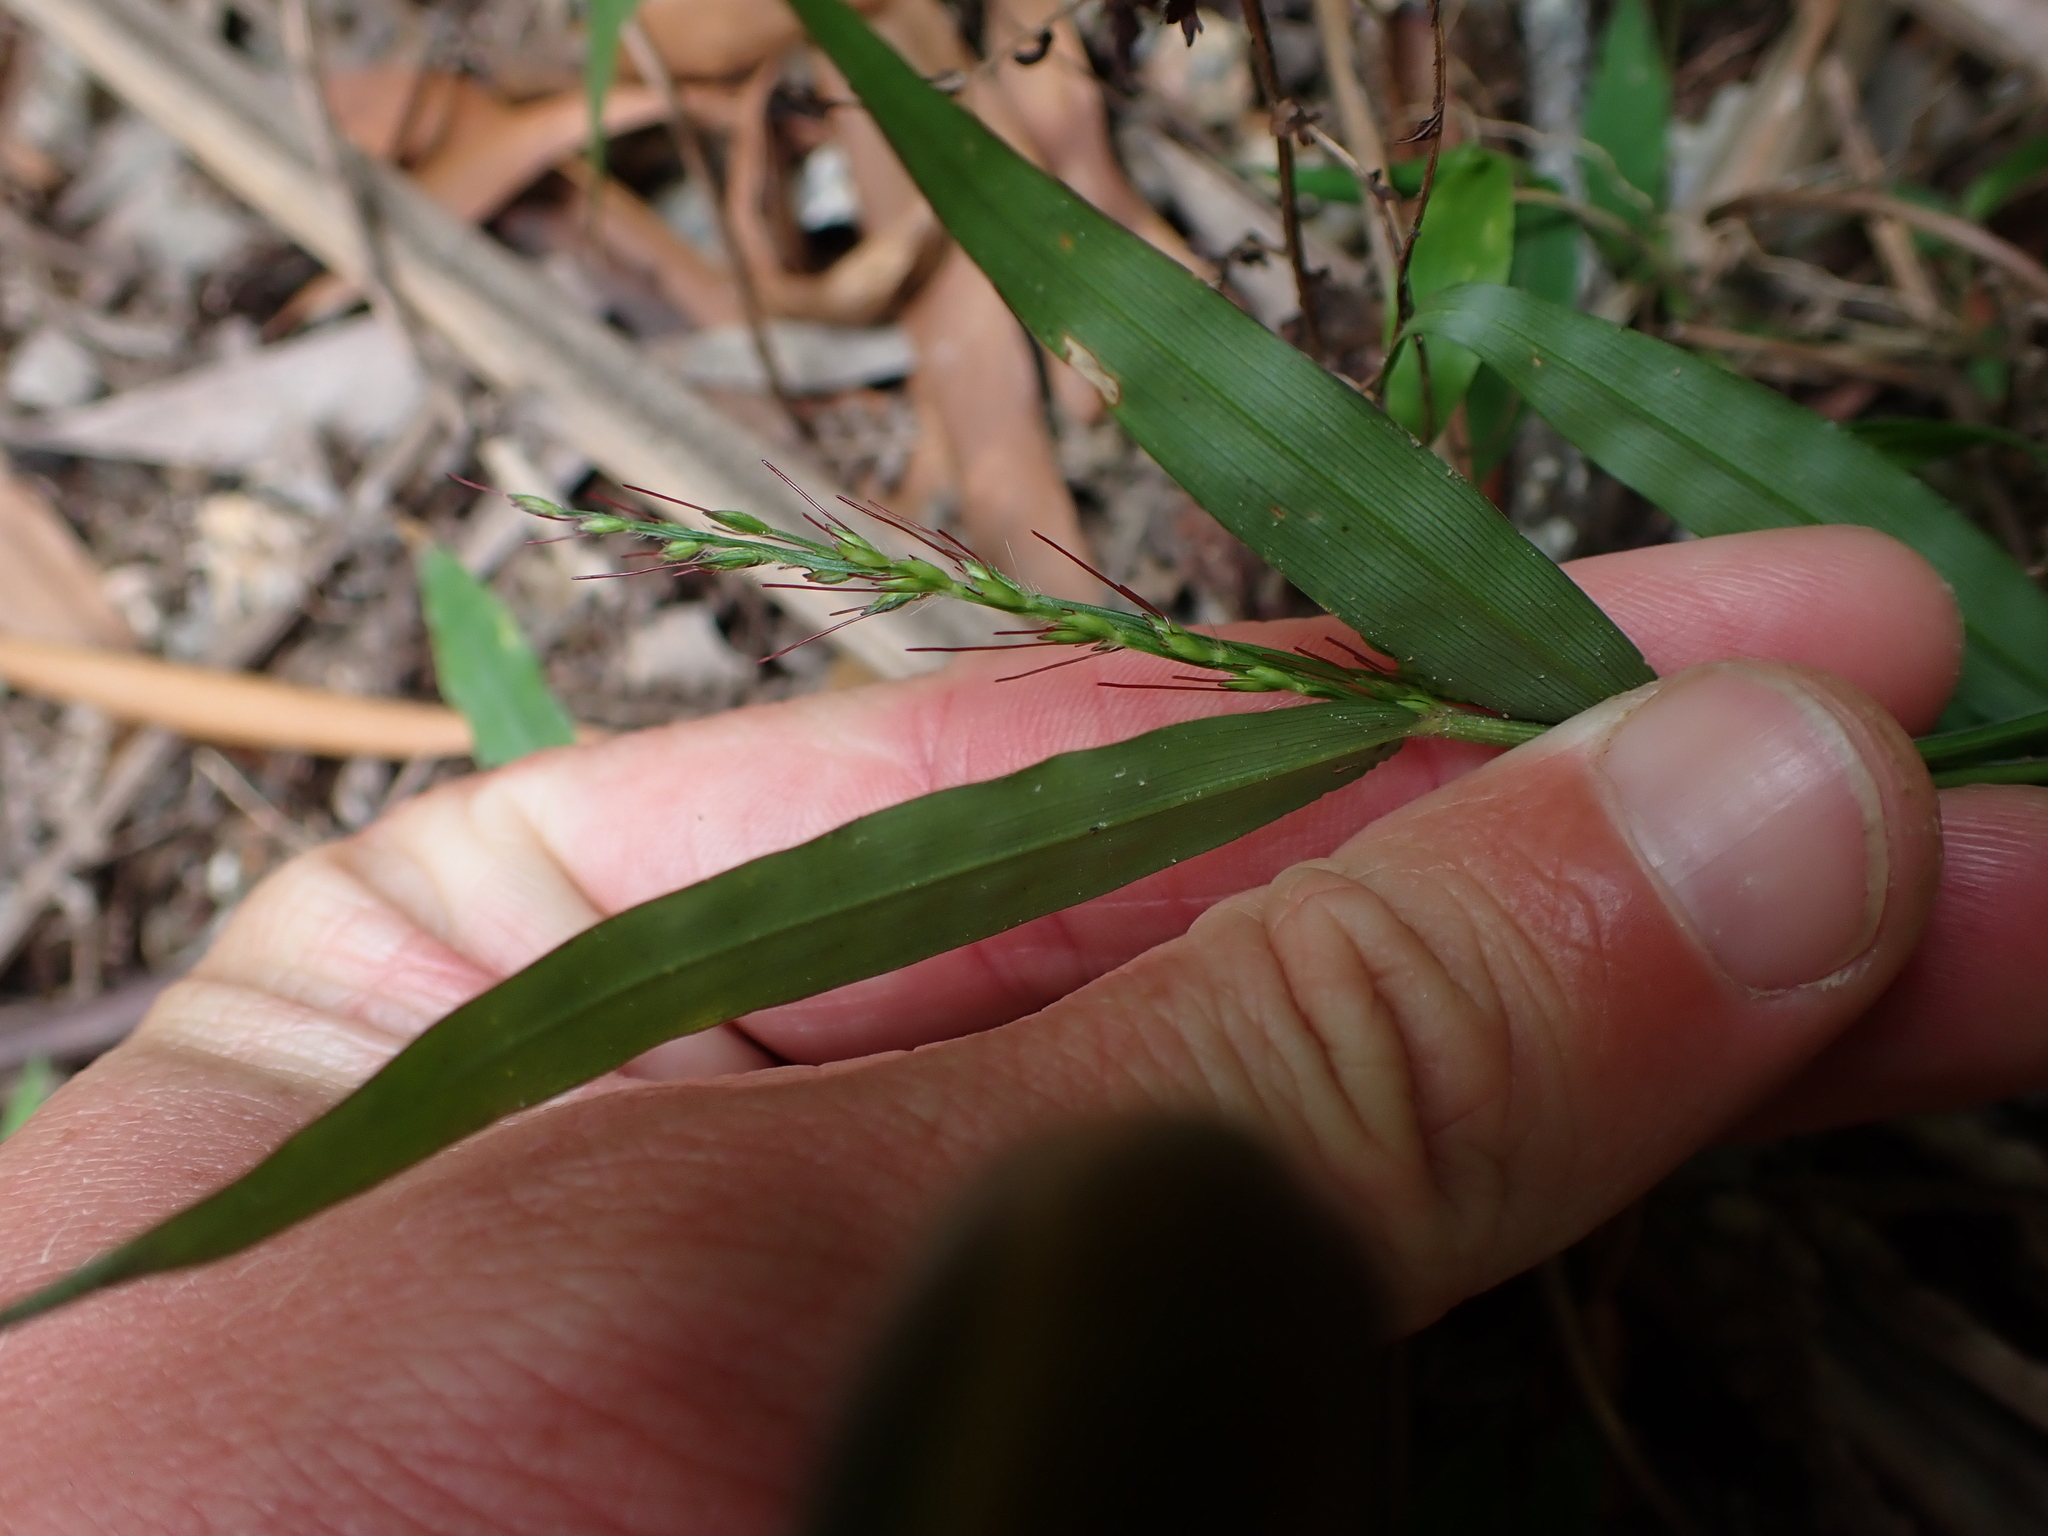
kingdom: Plantae
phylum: Tracheophyta
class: Liliopsida
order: Poales
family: Poaceae
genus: Oplismenus
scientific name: Oplismenus hirtellus
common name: Basketgrass
